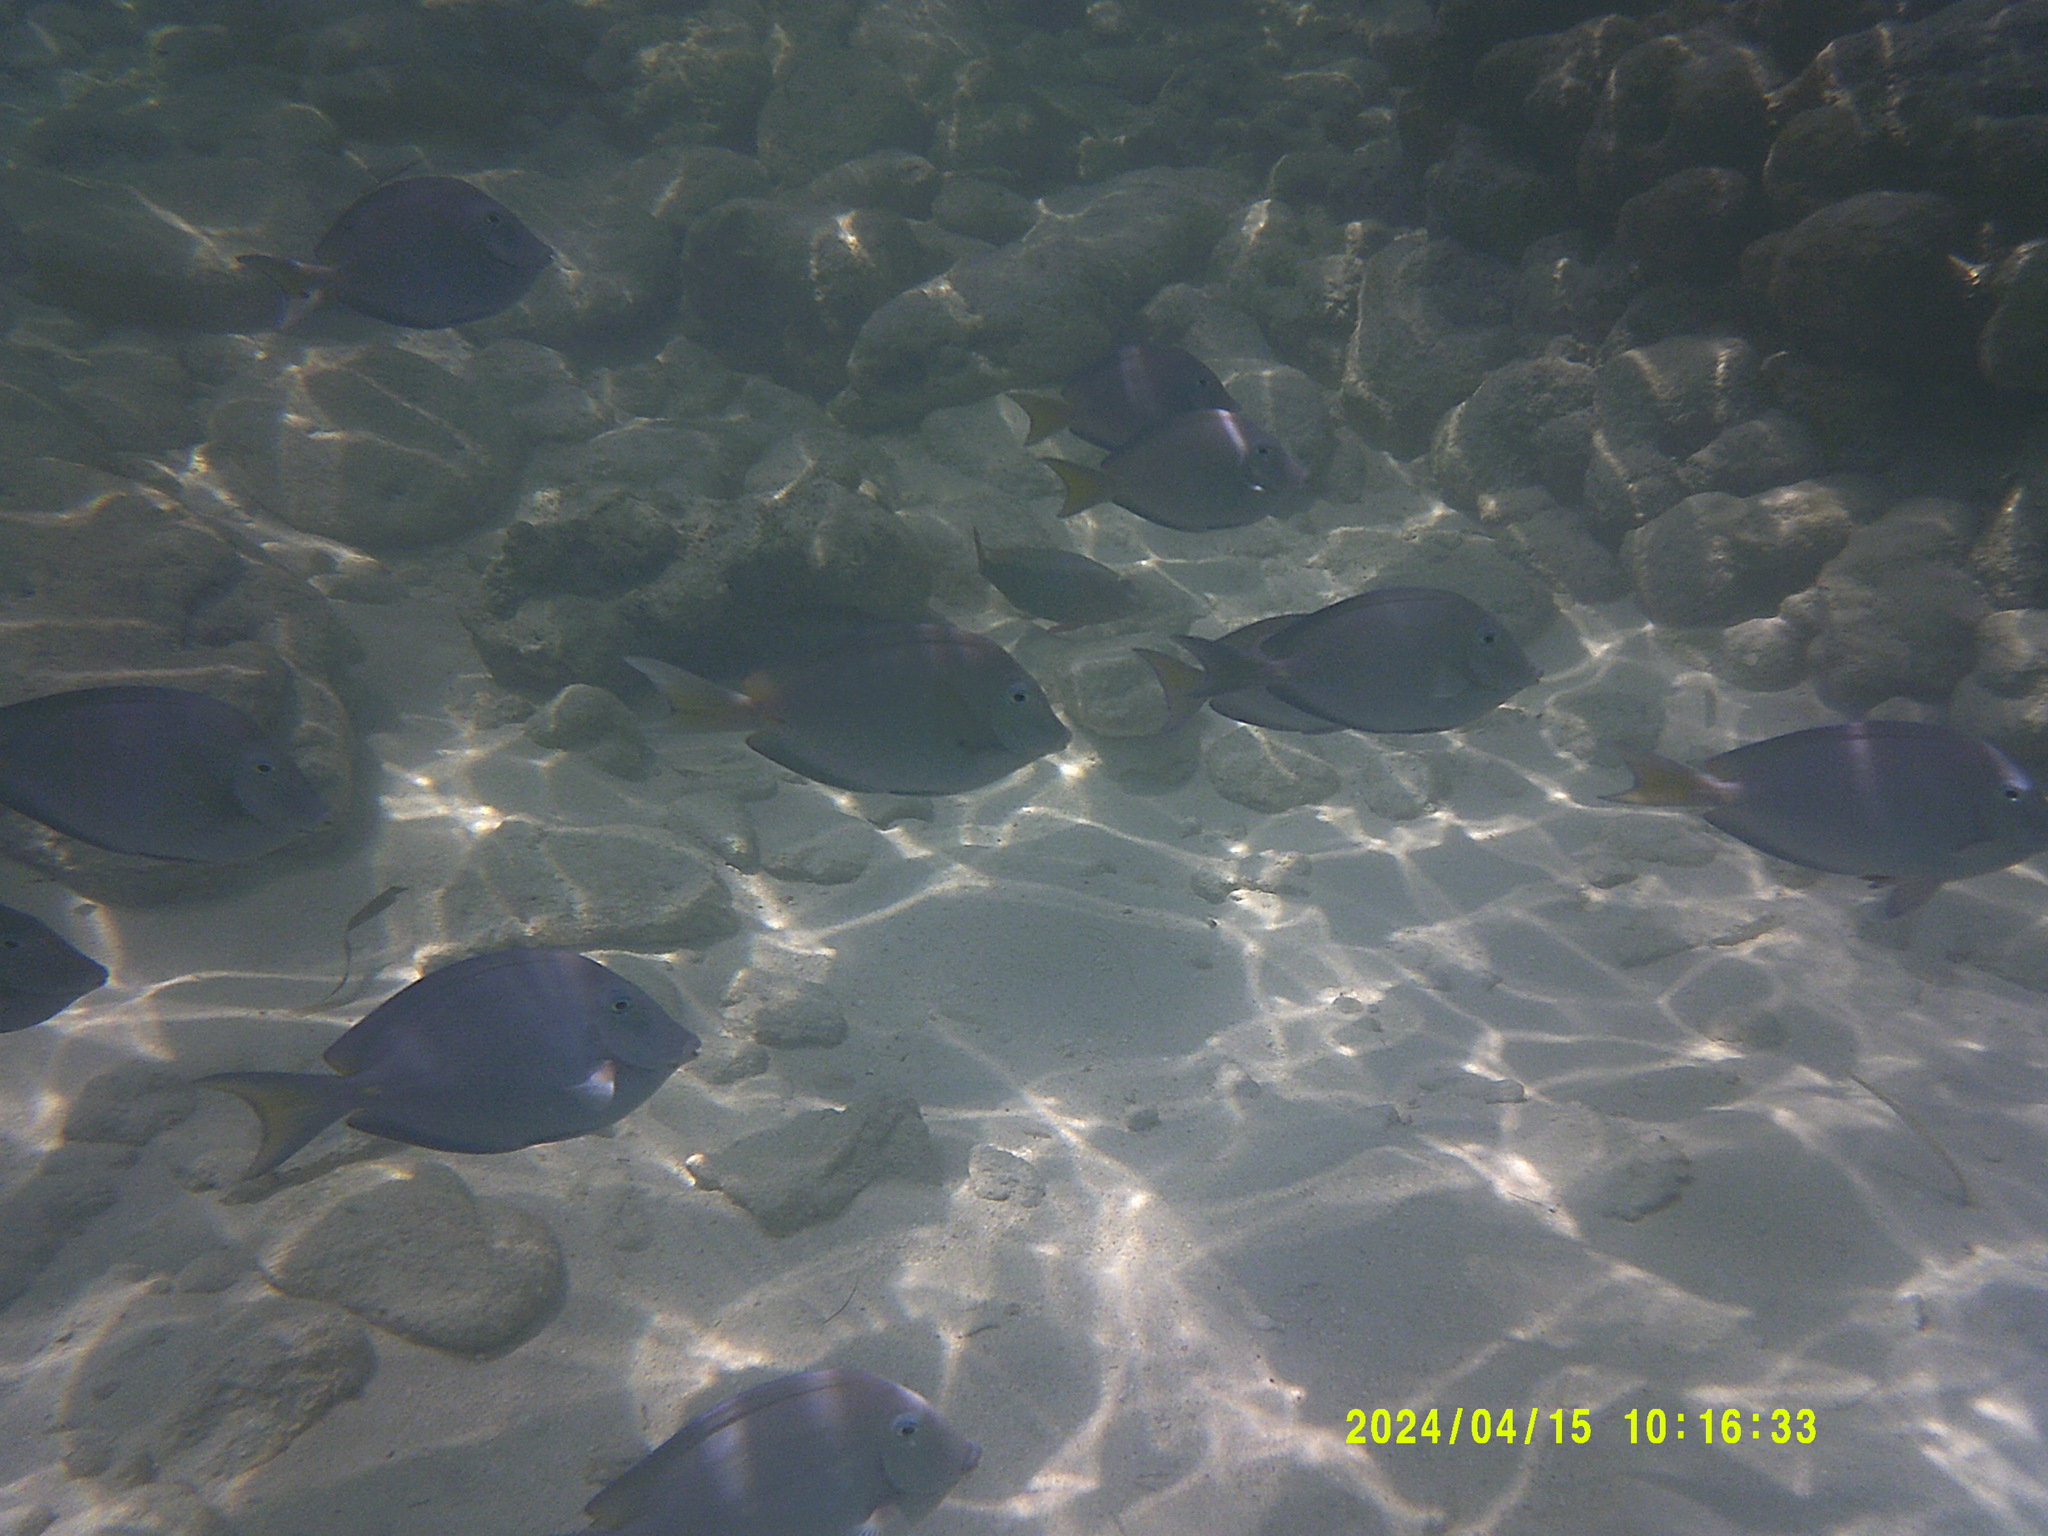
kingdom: Animalia
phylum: Chordata
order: Perciformes
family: Acanthuridae
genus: Acanthurus
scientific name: Acanthurus coeruleus
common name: Blue tang
